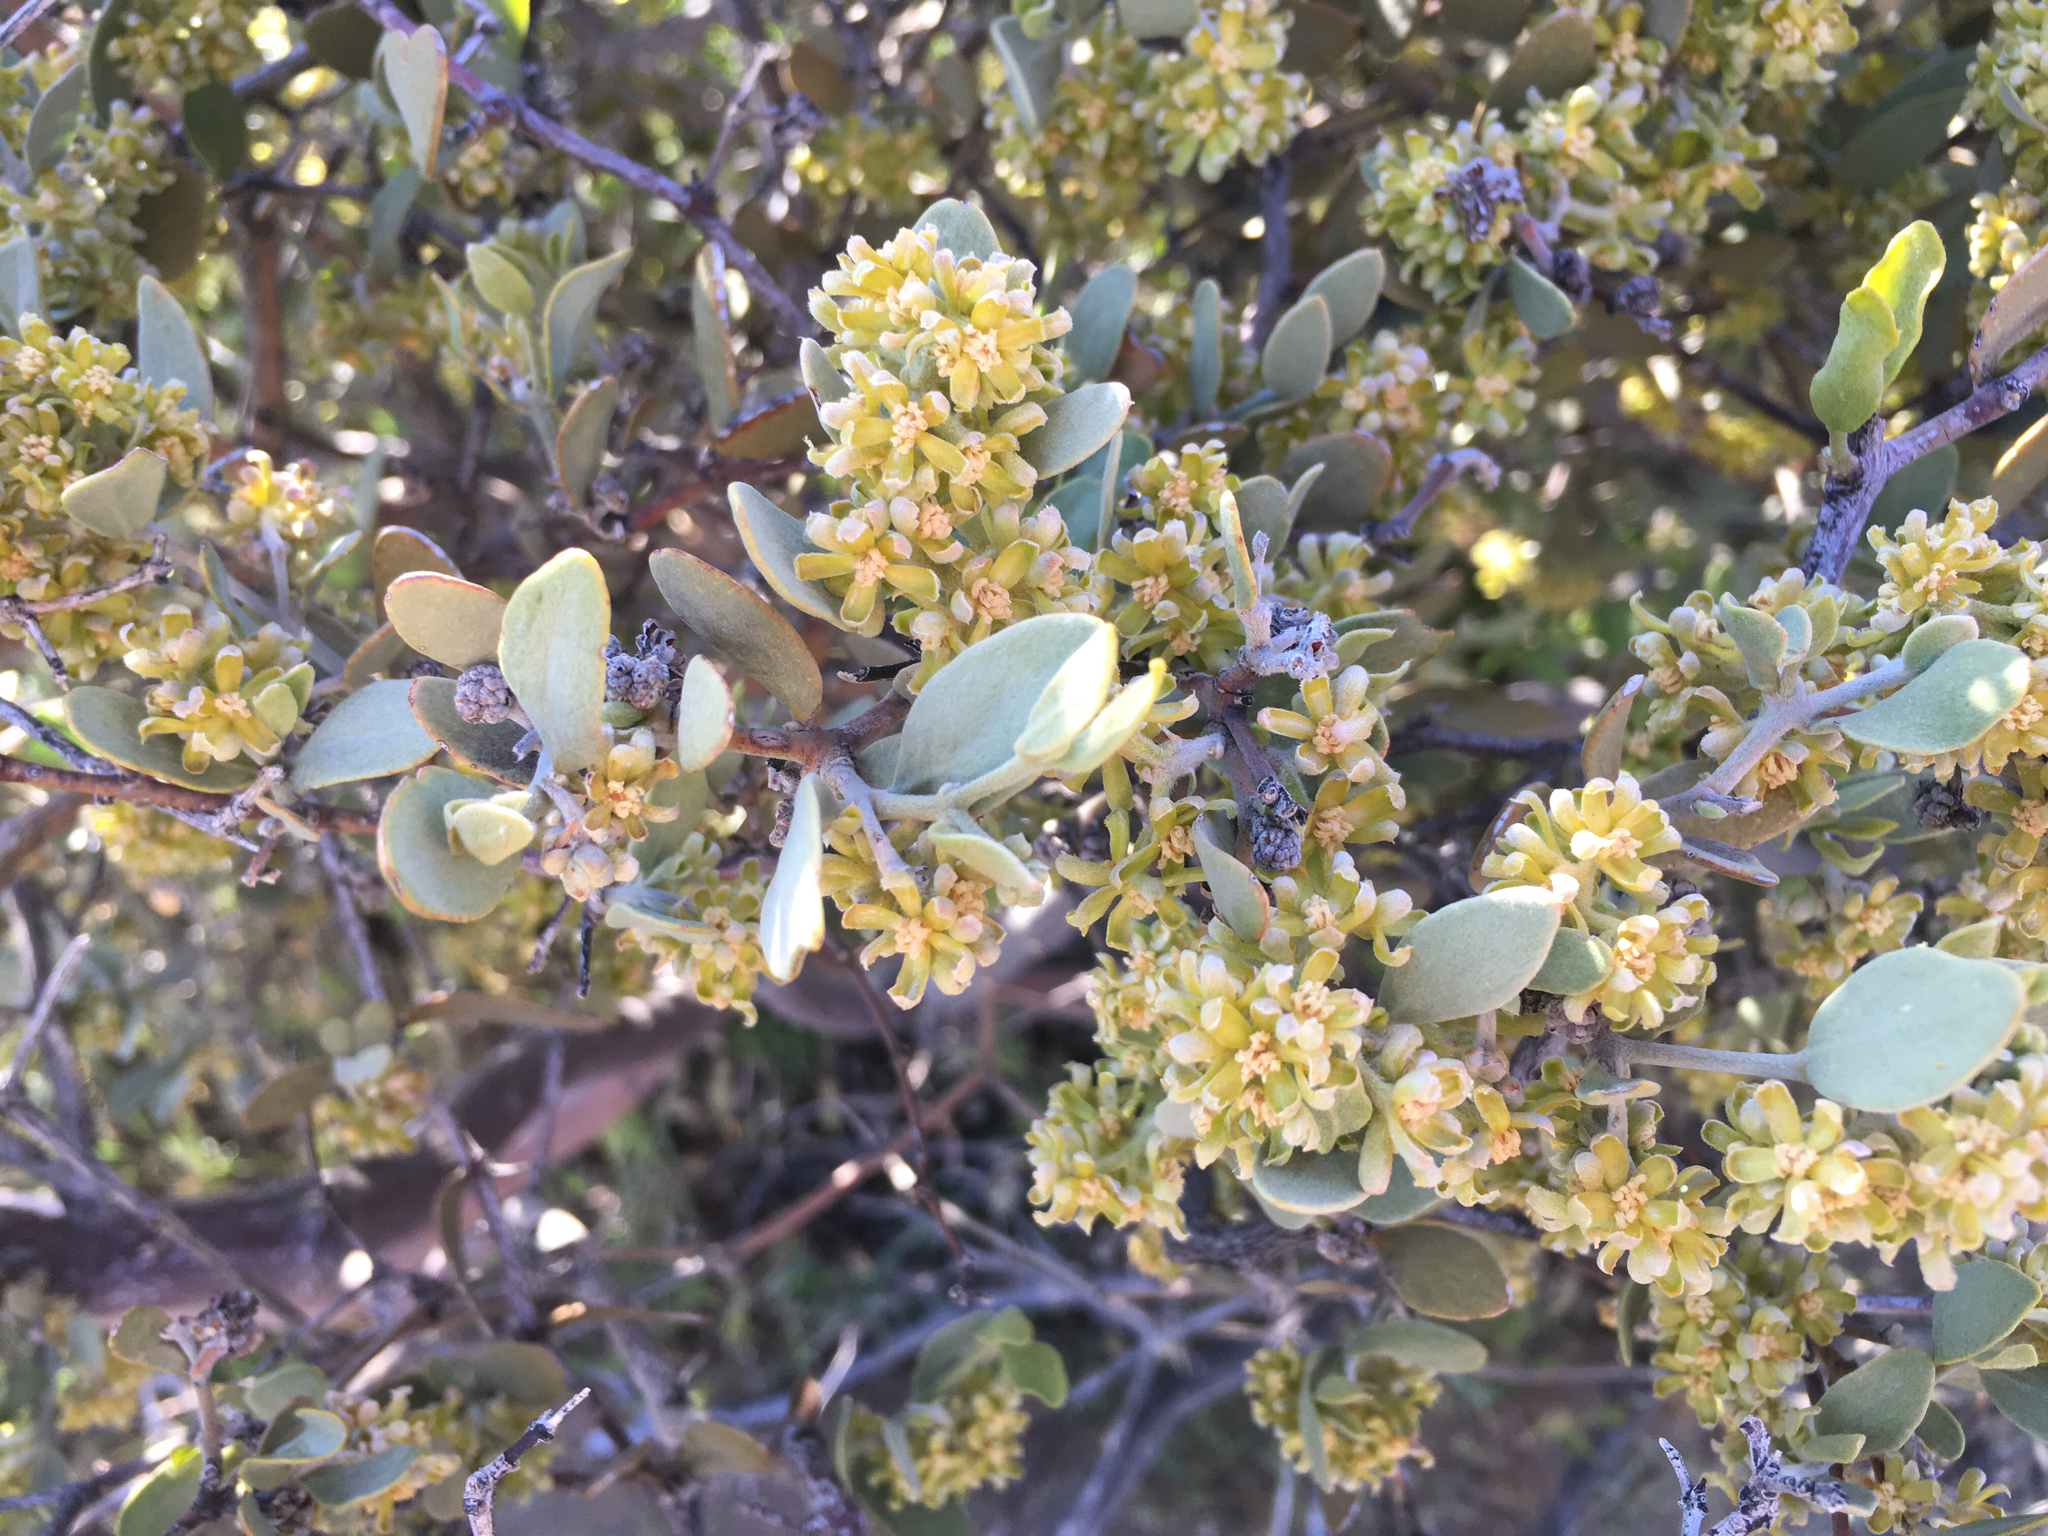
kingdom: Plantae
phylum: Tracheophyta
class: Magnoliopsida
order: Caryophyllales
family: Simmondsiaceae
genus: Simmondsia
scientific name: Simmondsia chinensis
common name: Jojoba
